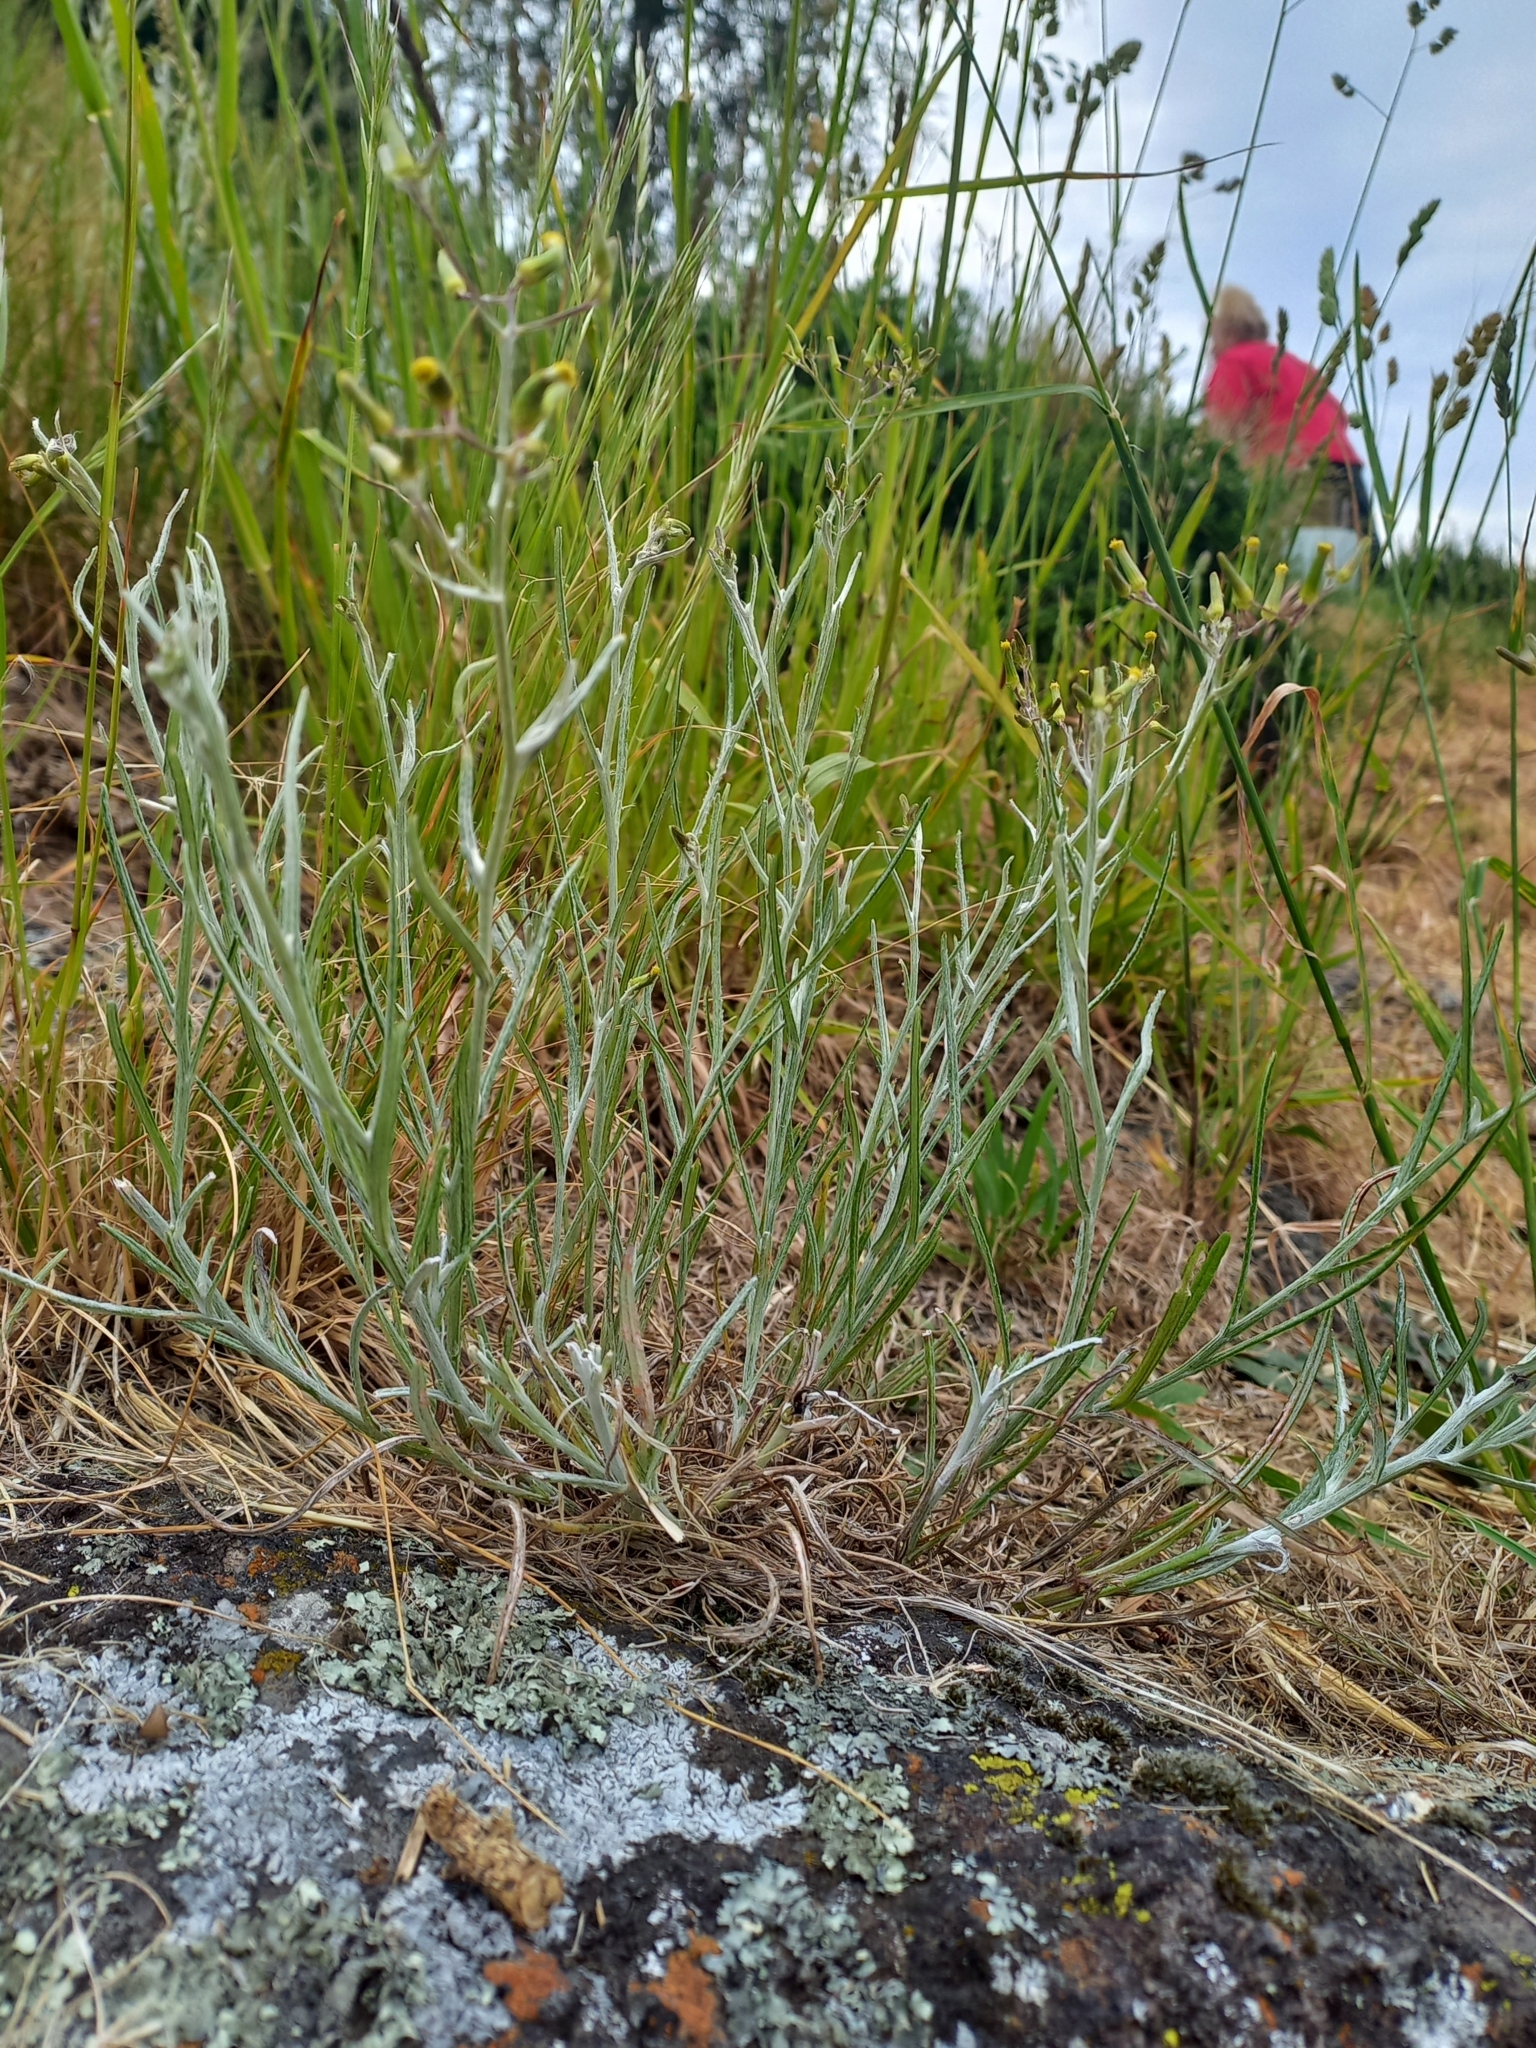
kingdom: Plantae
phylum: Tracheophyta
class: Magnoliopsida
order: Asterales
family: Asteraceae
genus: Senecio
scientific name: Senecio quadridentatus
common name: Cotton fireweed
